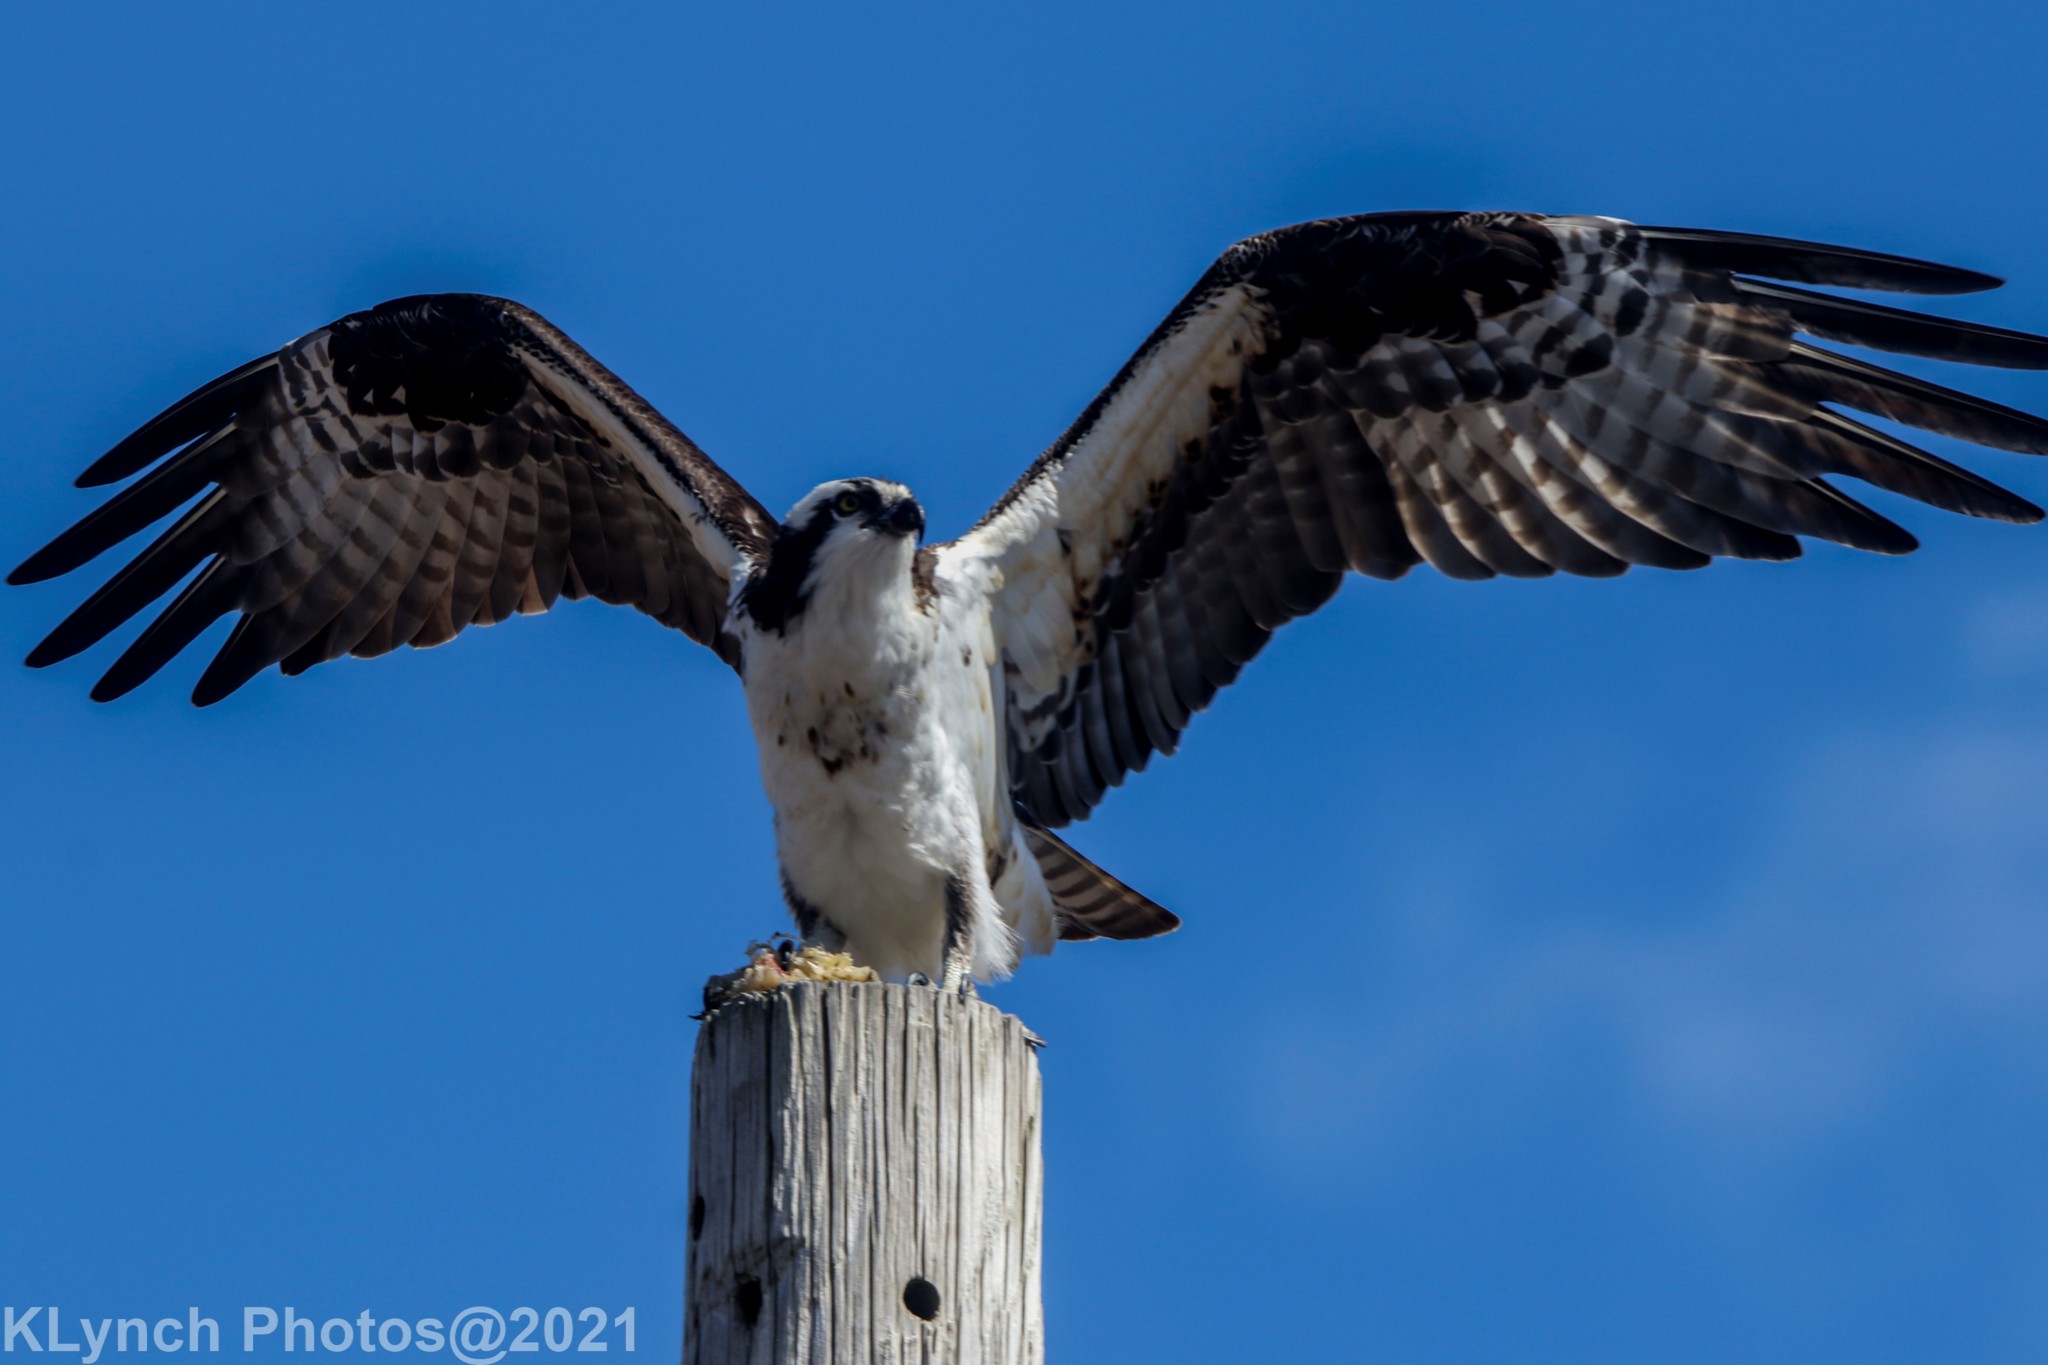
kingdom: Animalia
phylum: Chordata
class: Aves
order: Accipitriformes
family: Pandionidae
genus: Pandion
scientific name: Pandion haliaetus
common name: Osprey
